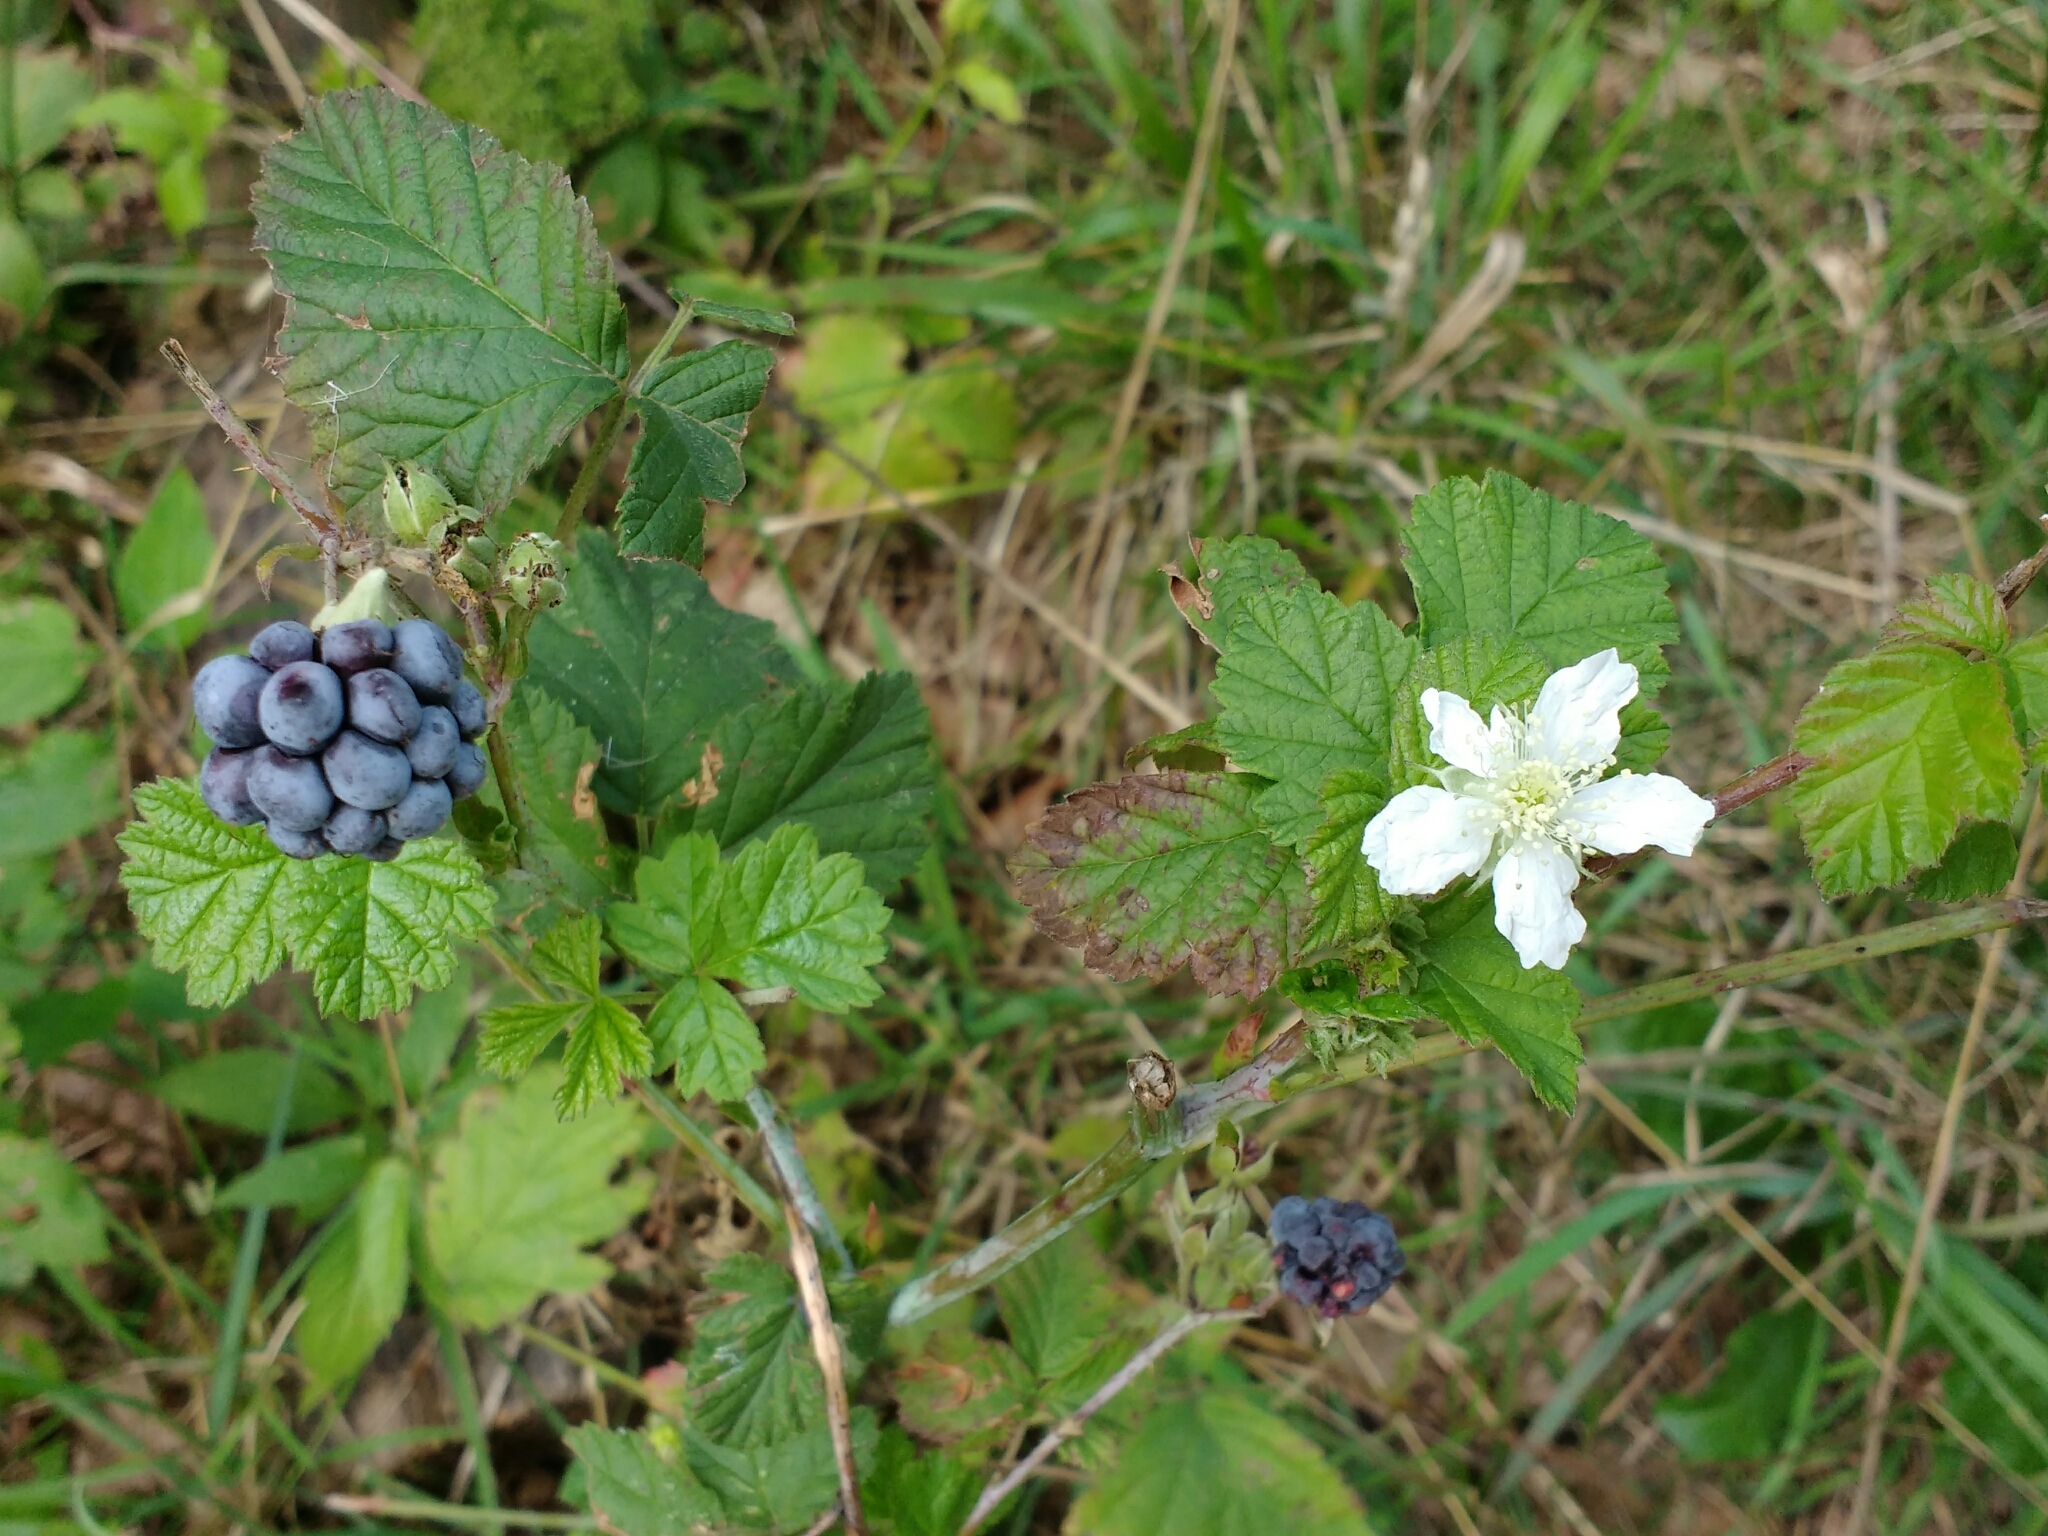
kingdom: Plantae
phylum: Tracheophyta
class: Magnoliopsida
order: Rosales
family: Rosaceae
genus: Rubus
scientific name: Rubus caesius
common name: Dewberry
